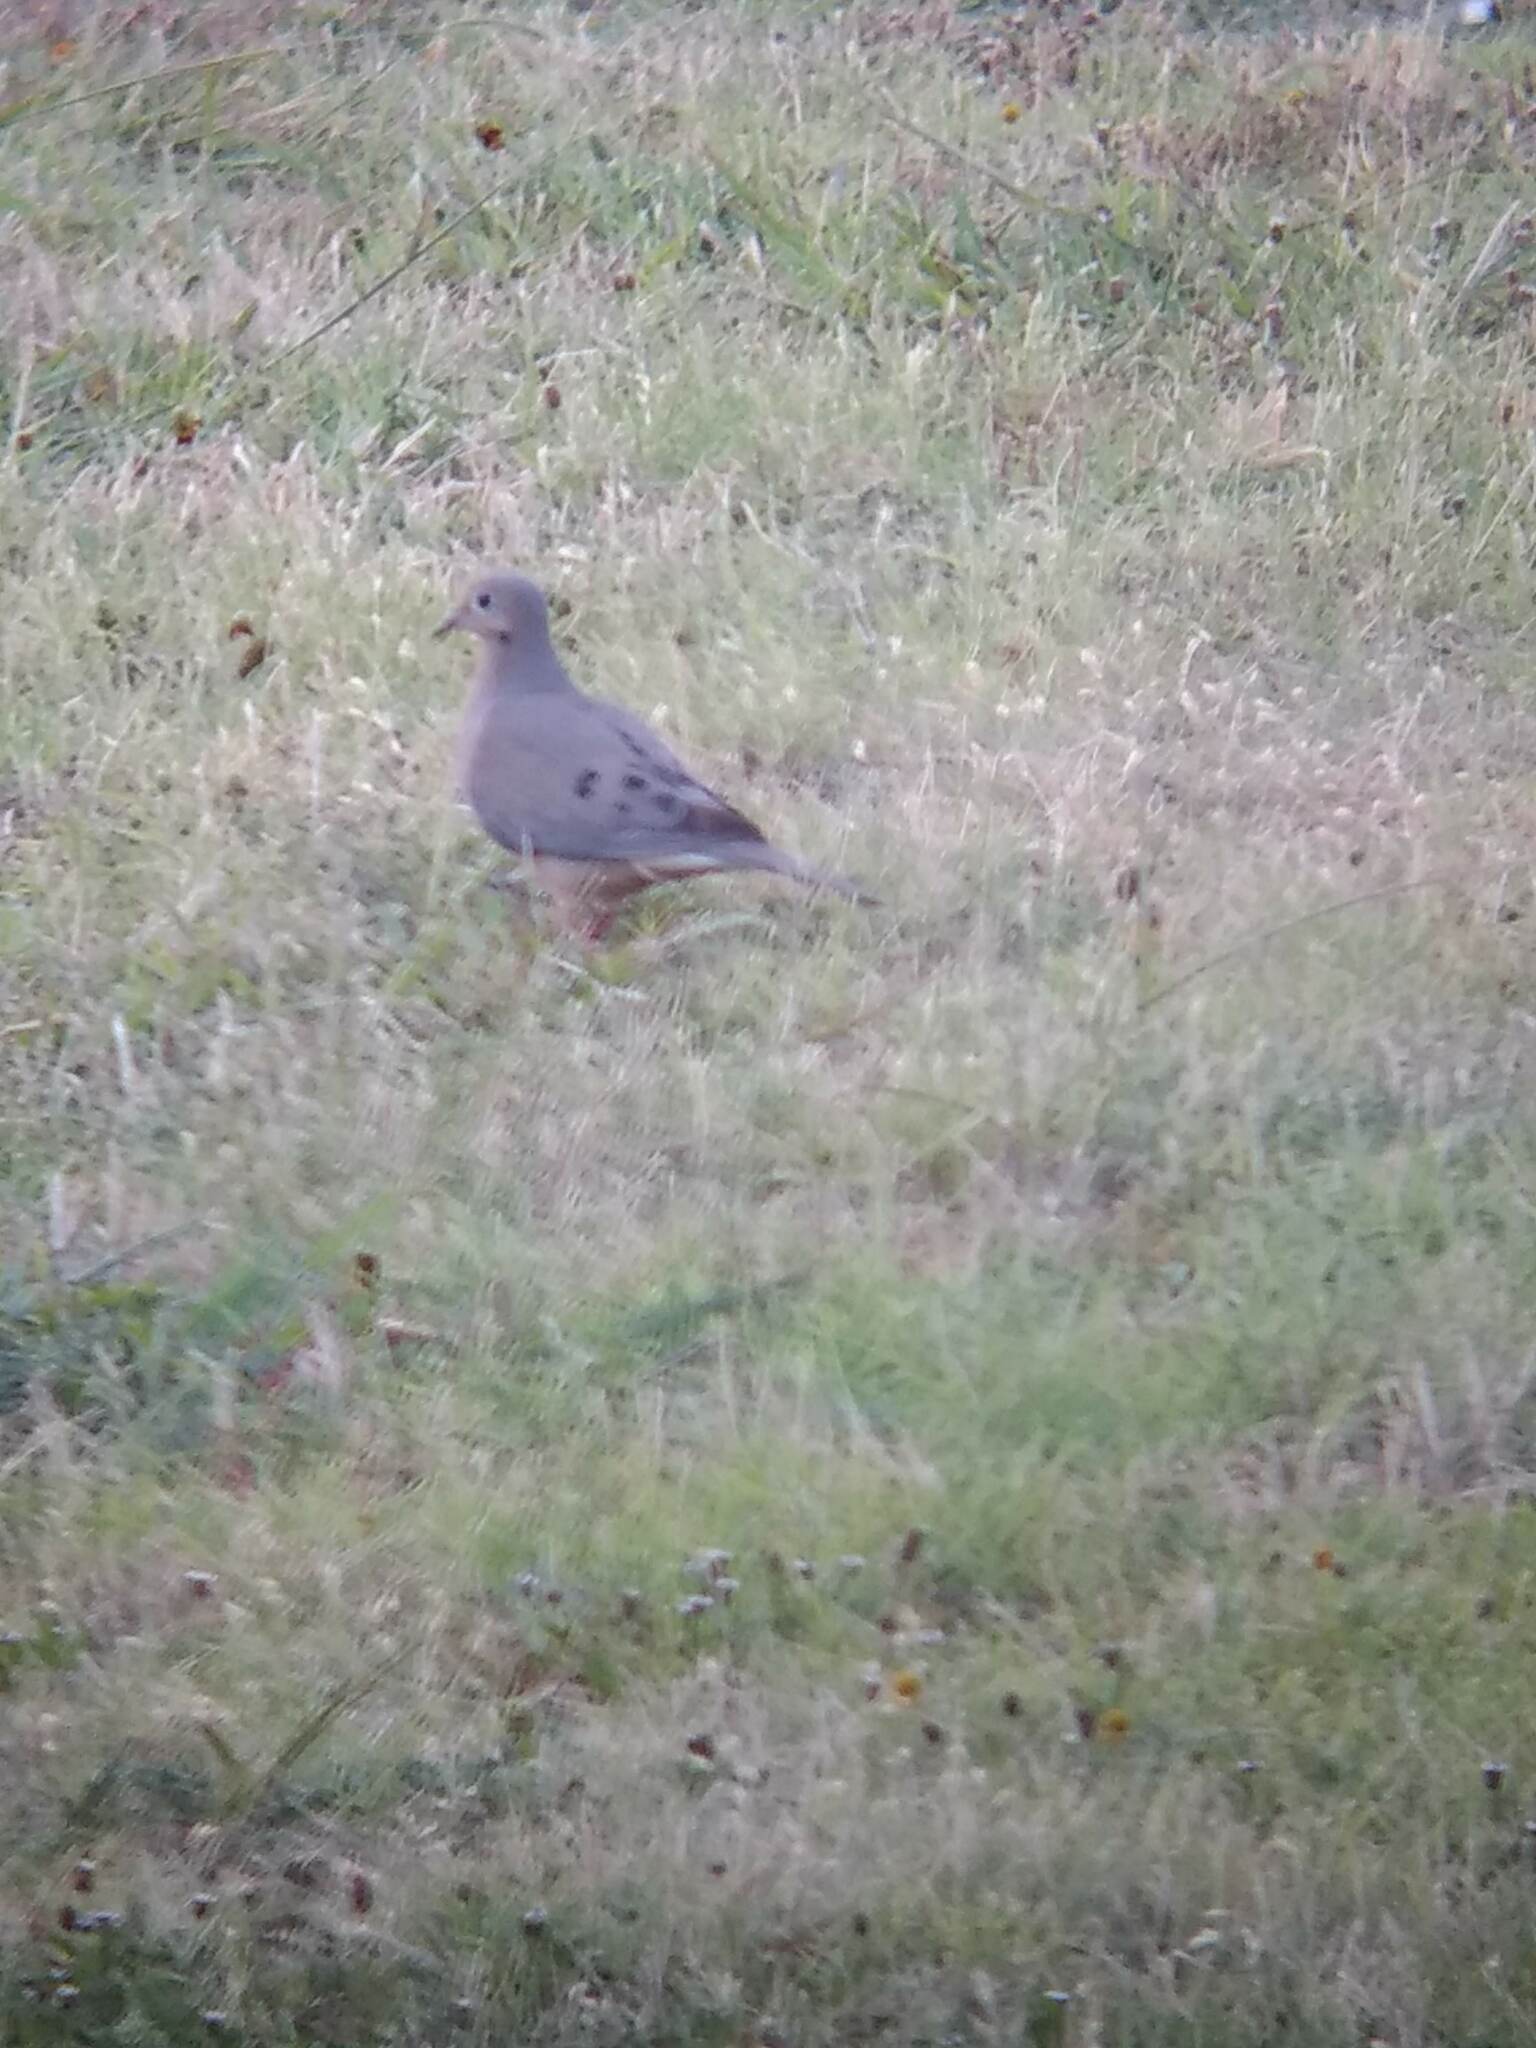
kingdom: Animalia
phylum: Chordata
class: Aves
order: Columbiformes
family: Columbidae
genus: Zenaida
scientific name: Zenaida macroura
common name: Mourning dove
